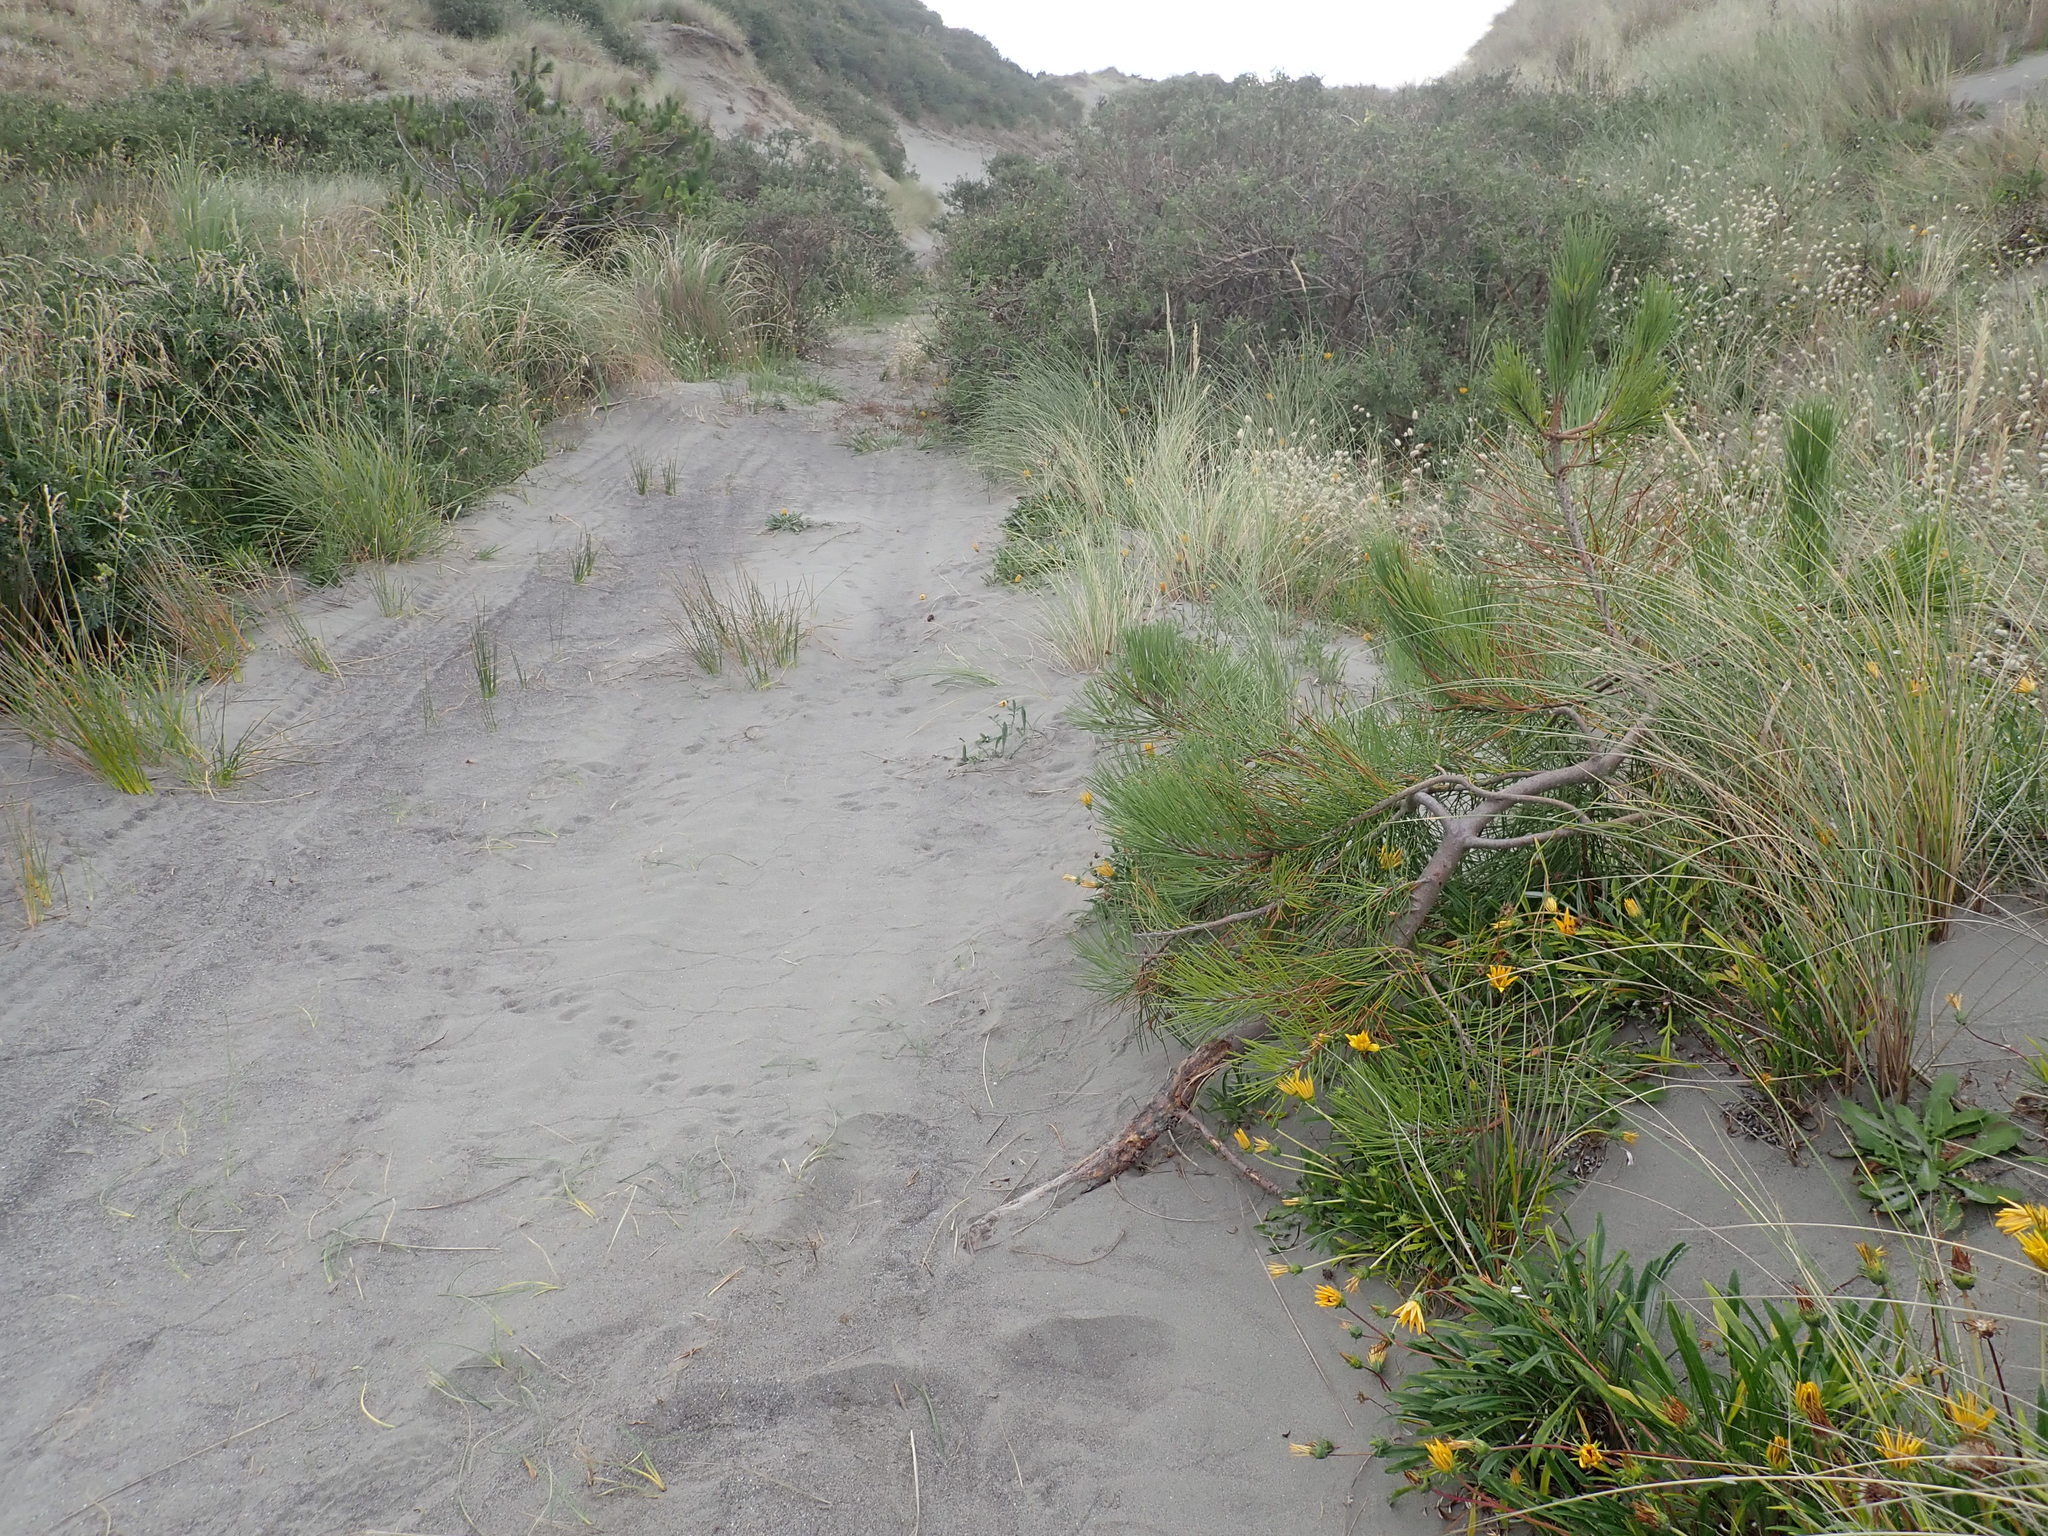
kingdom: Plantae
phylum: Tracheophyta
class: Pinopsida
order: Pinales
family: Pinaceae
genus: Pinus
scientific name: Pinus pinaster
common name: Maritime pine
